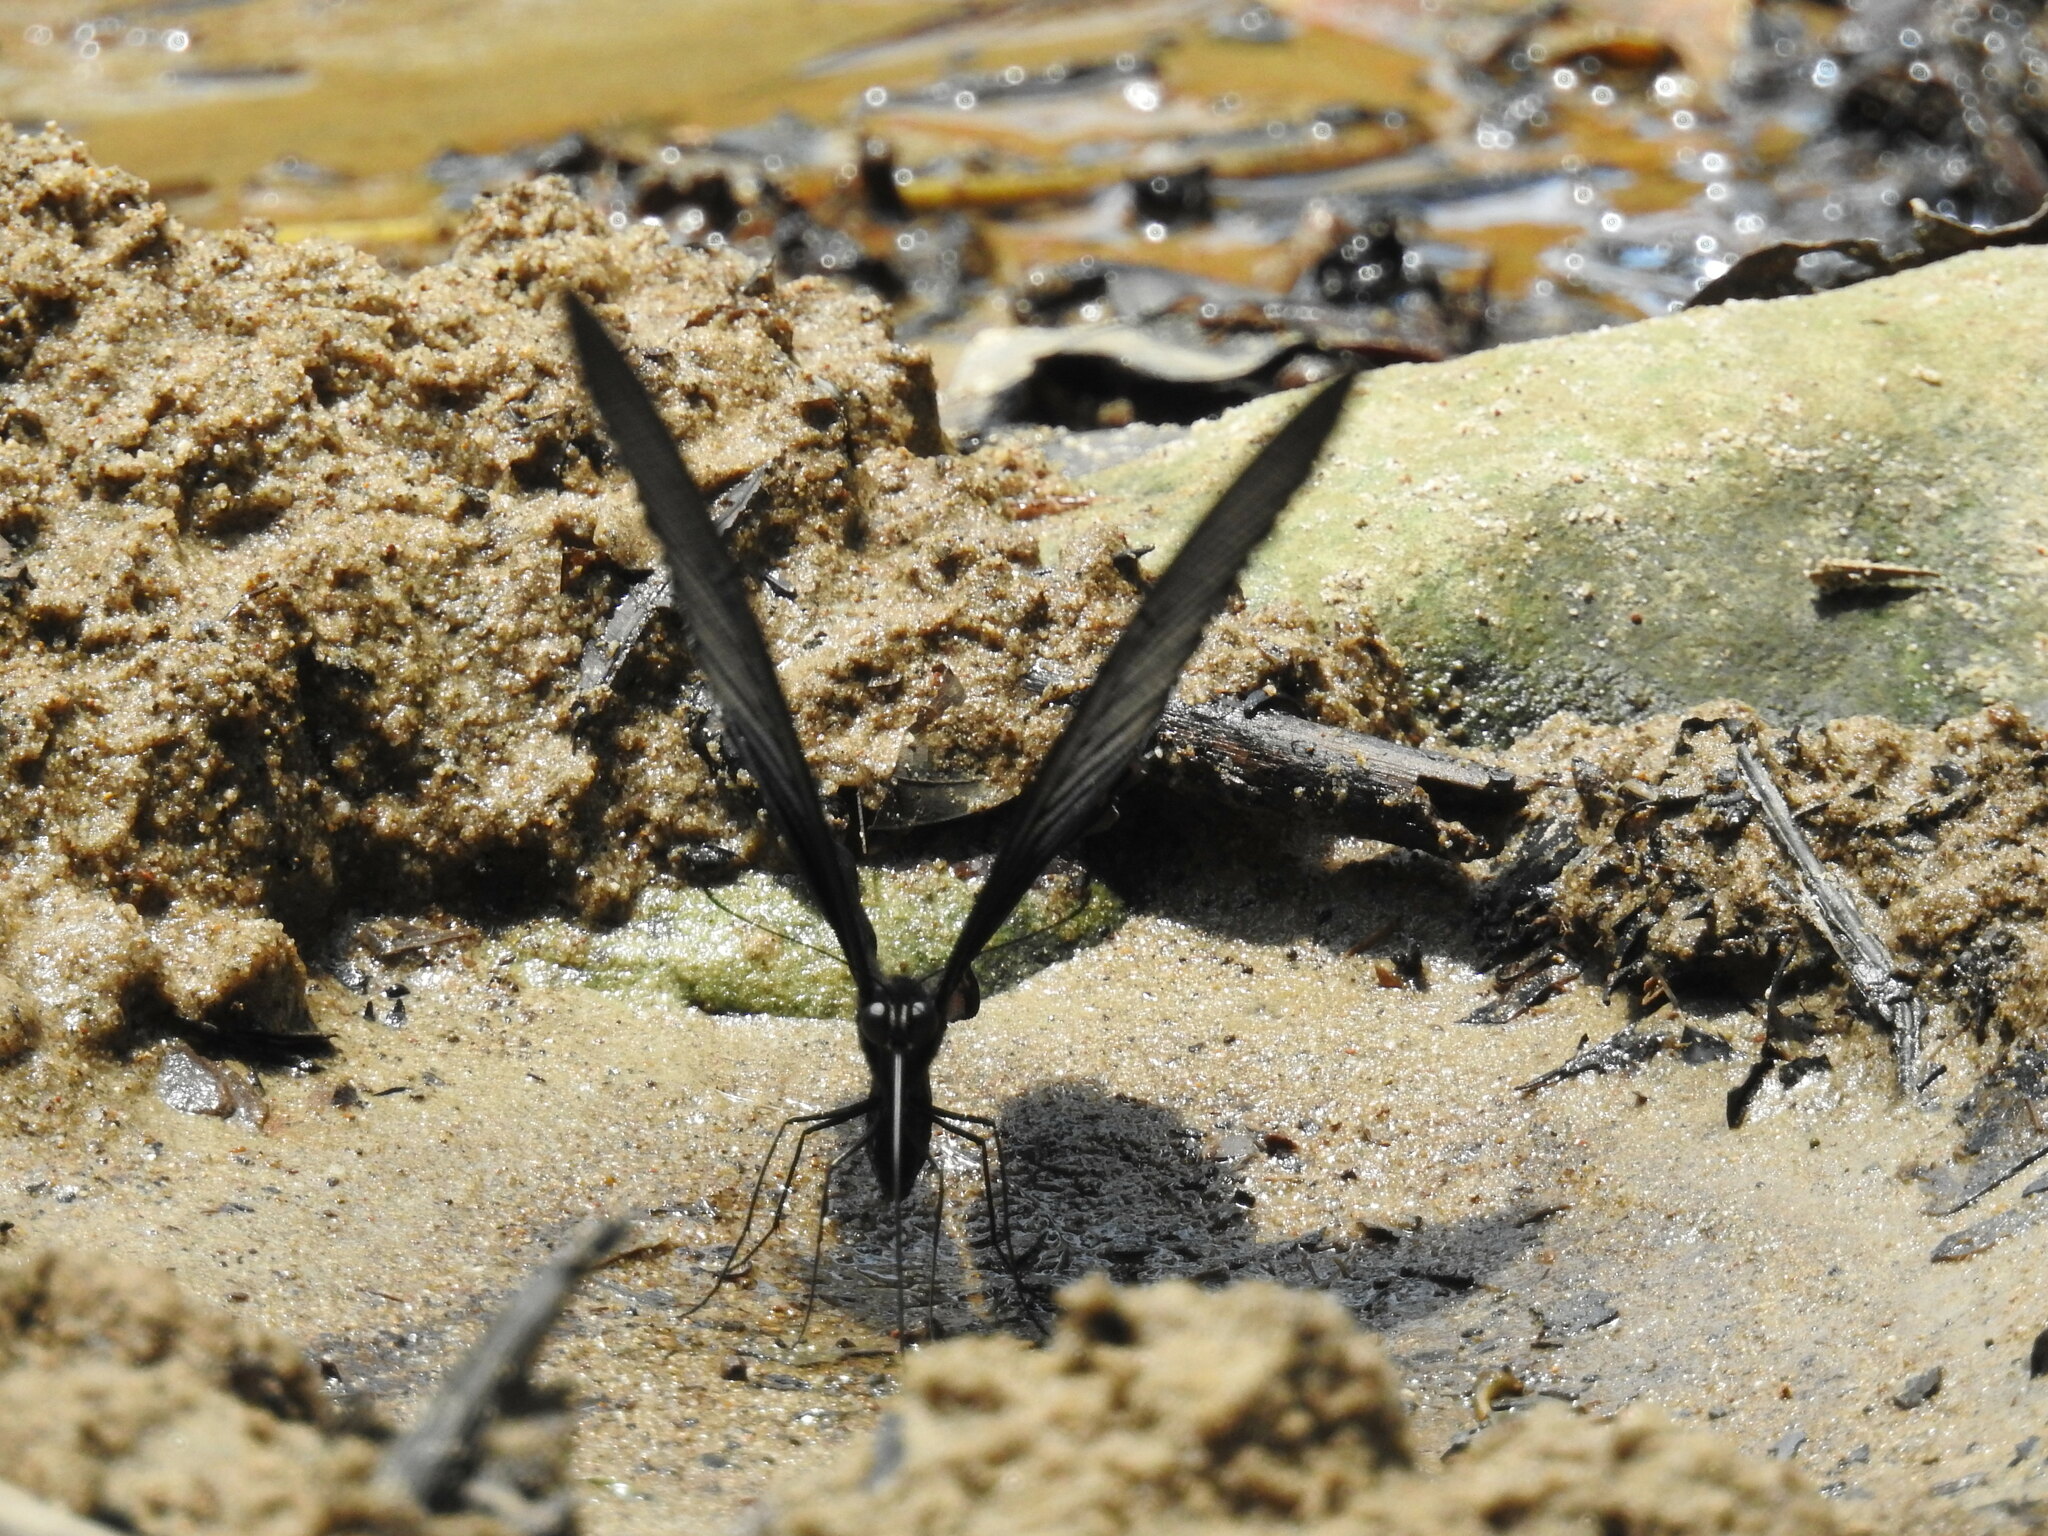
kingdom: Animalia
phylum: Arthropoda
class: Insecta
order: Lepidoptera
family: Papilionidae
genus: Papilio
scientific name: Papilio protenor
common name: Spangle
